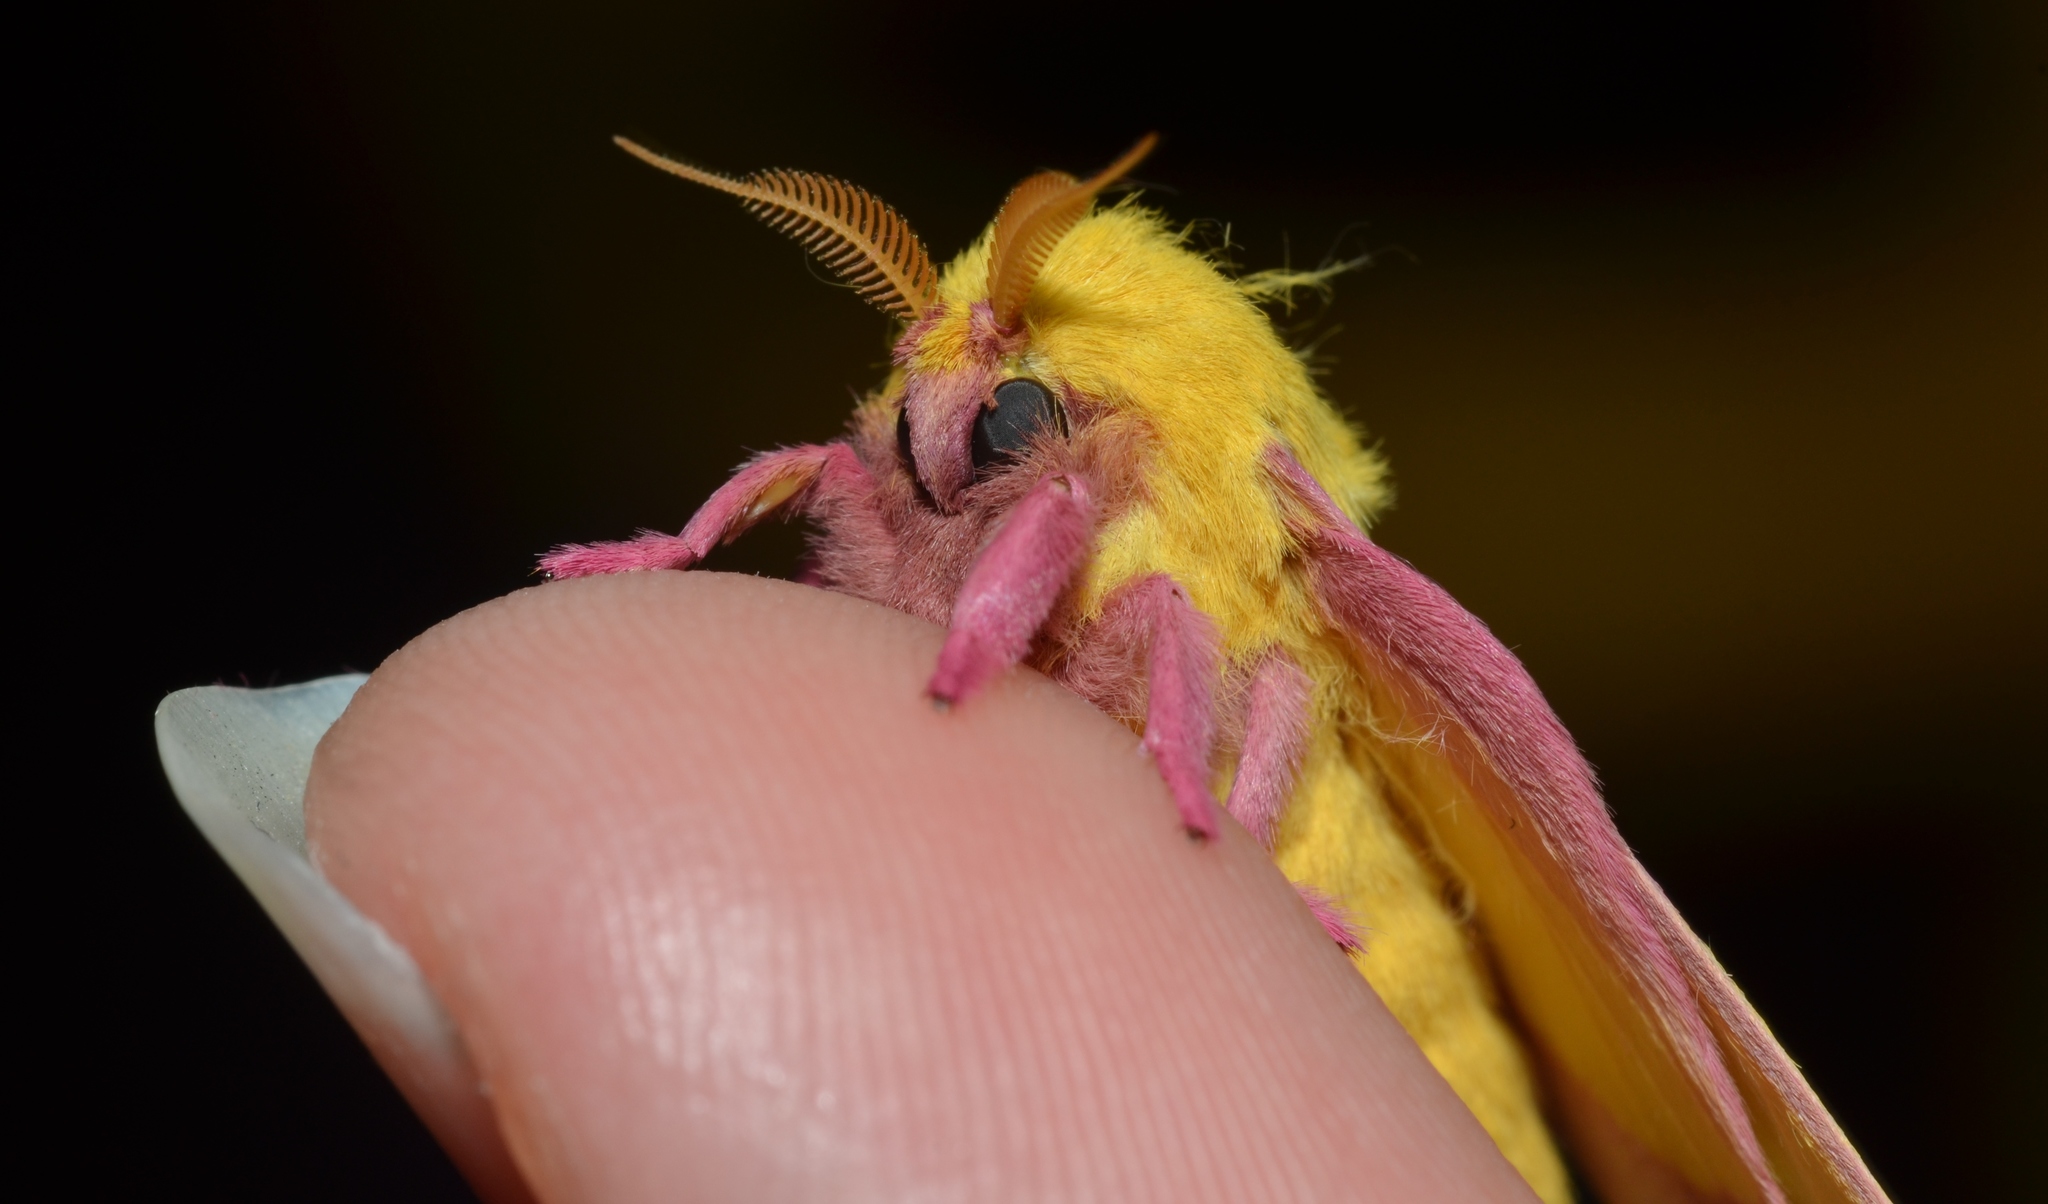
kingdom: Animalia
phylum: Arthropoda
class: Insecta
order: Lepidoptera
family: Saturniidae
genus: Dryocampa
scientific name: Dryocampa rubicunda
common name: Rosy maple moth
